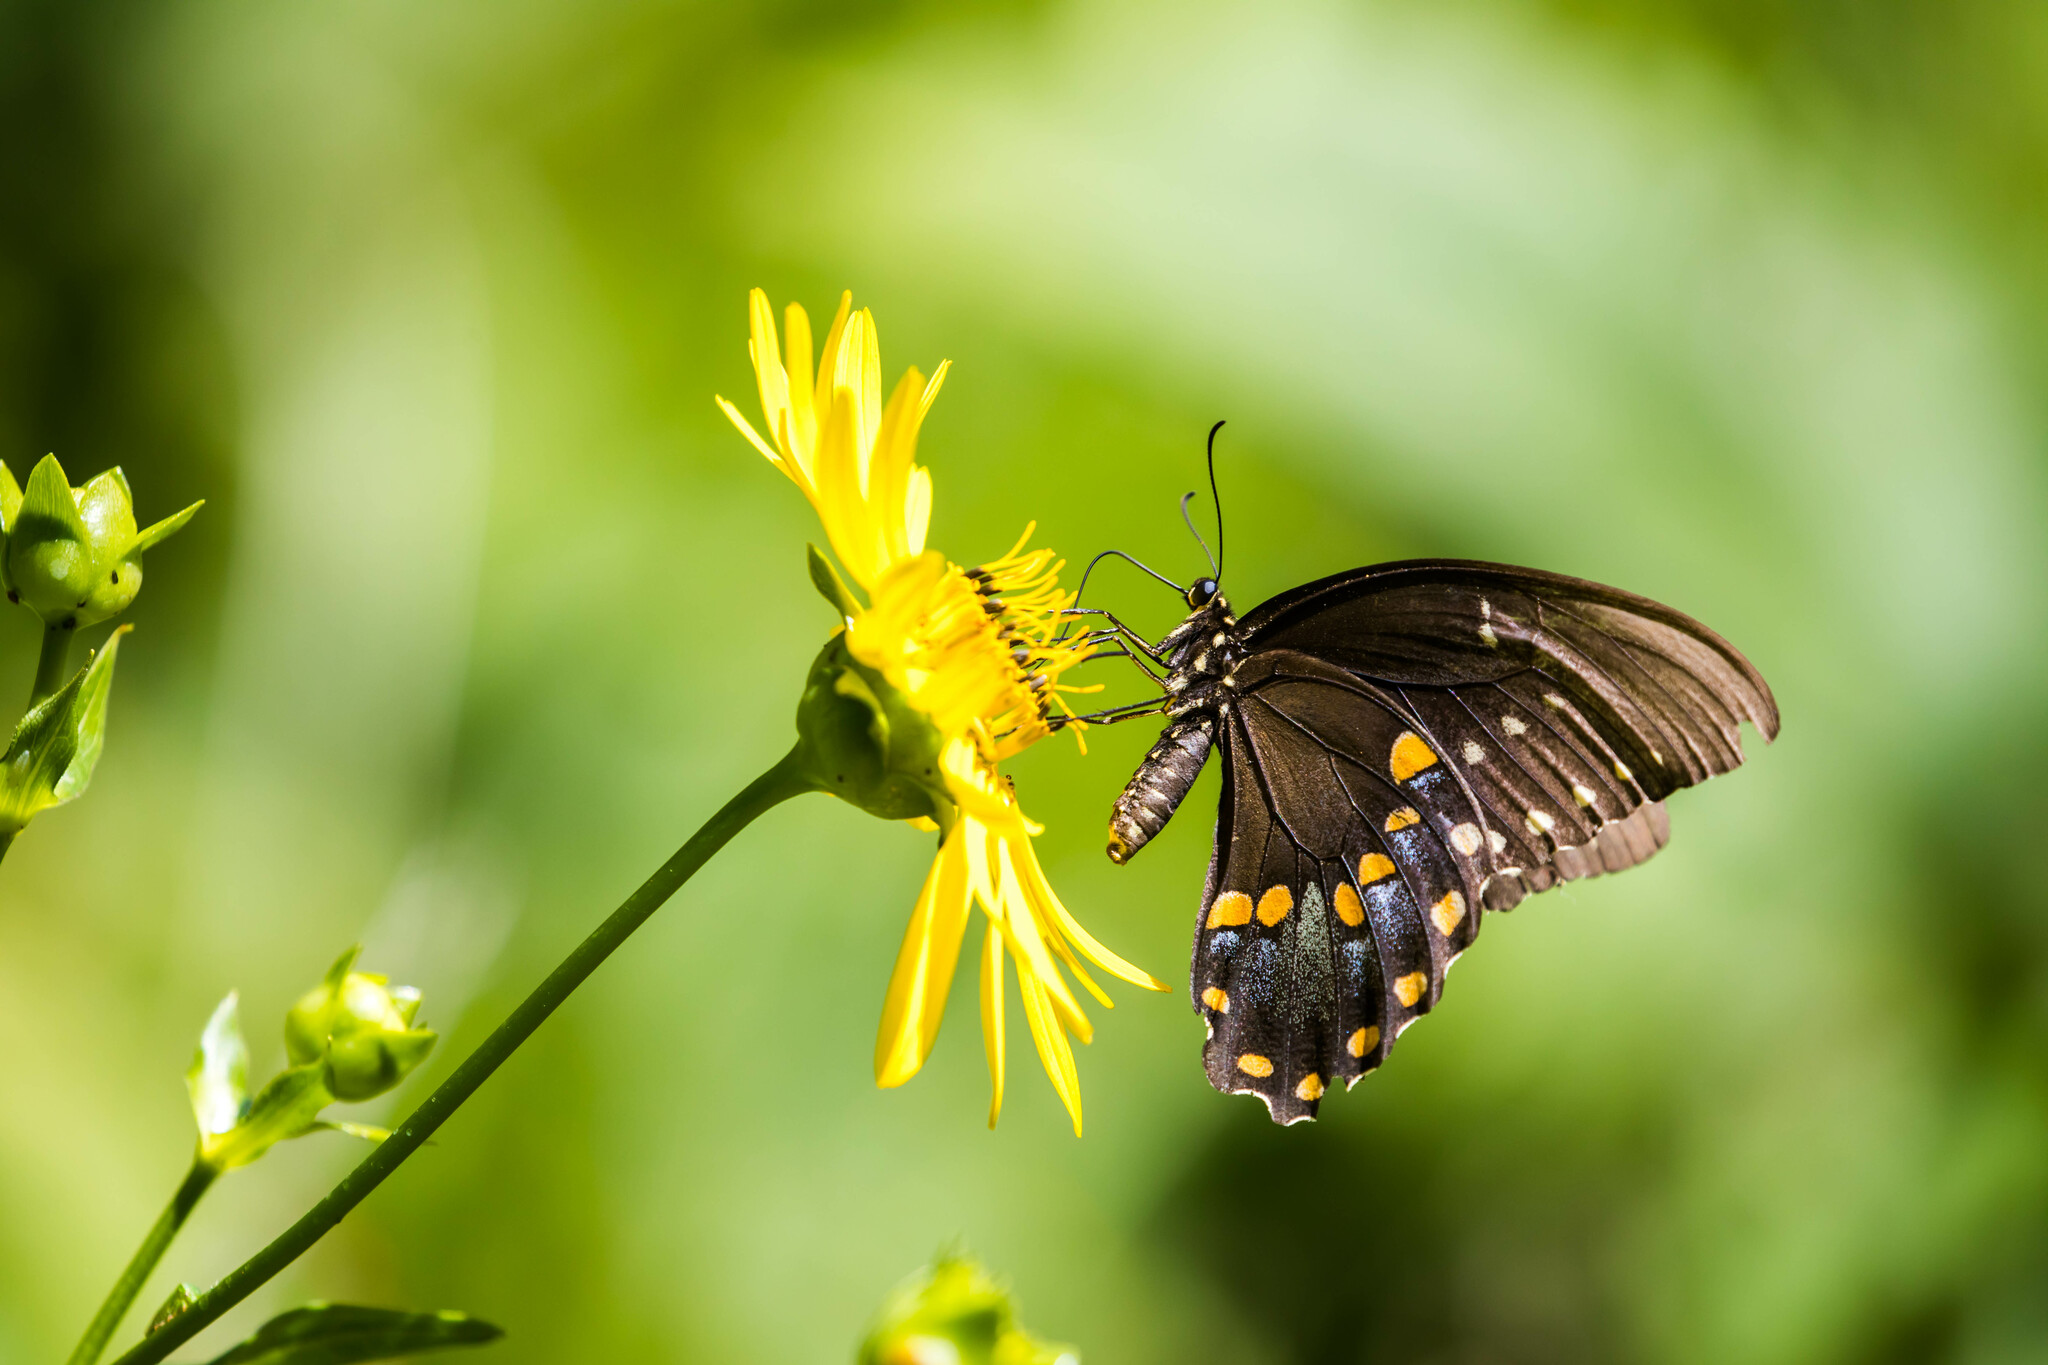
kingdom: Animalia
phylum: Arthropoda
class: Insecta
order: Lepidoptera
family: Papilionidae
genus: Papilio
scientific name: Papilio troilus
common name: Spicebush swallowtail
